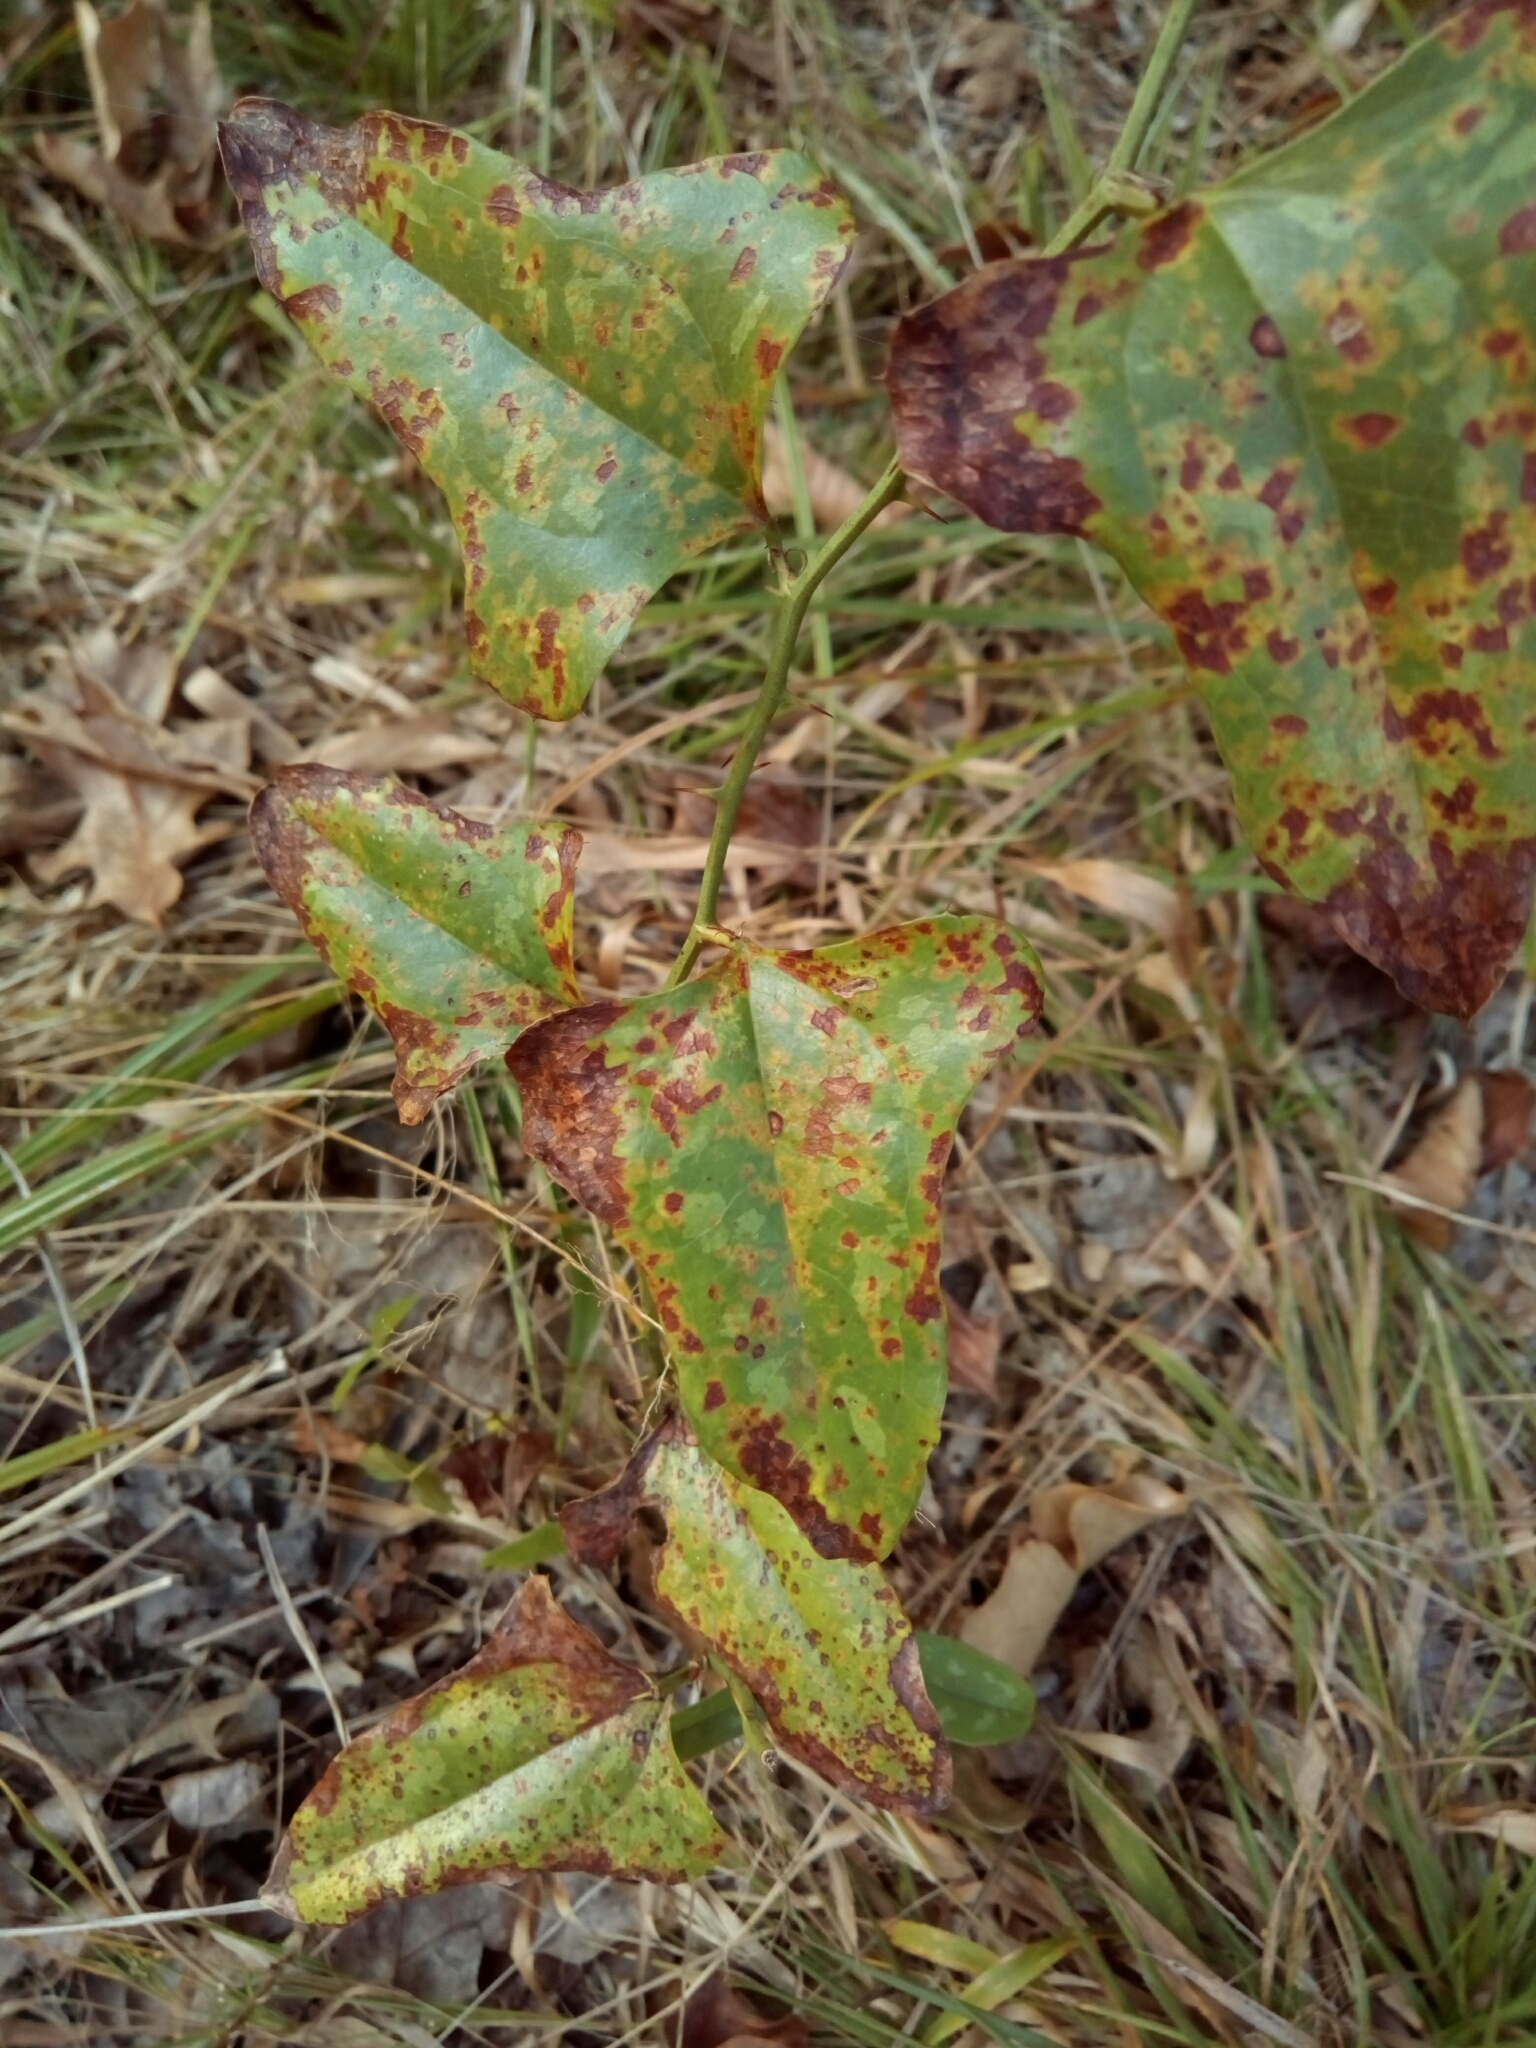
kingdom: Plantae
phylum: Tracheophyta
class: Liliopsida
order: Liliales
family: Smilacaceae
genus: Smilax
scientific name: Smilax bona-nox
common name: Catbrier
